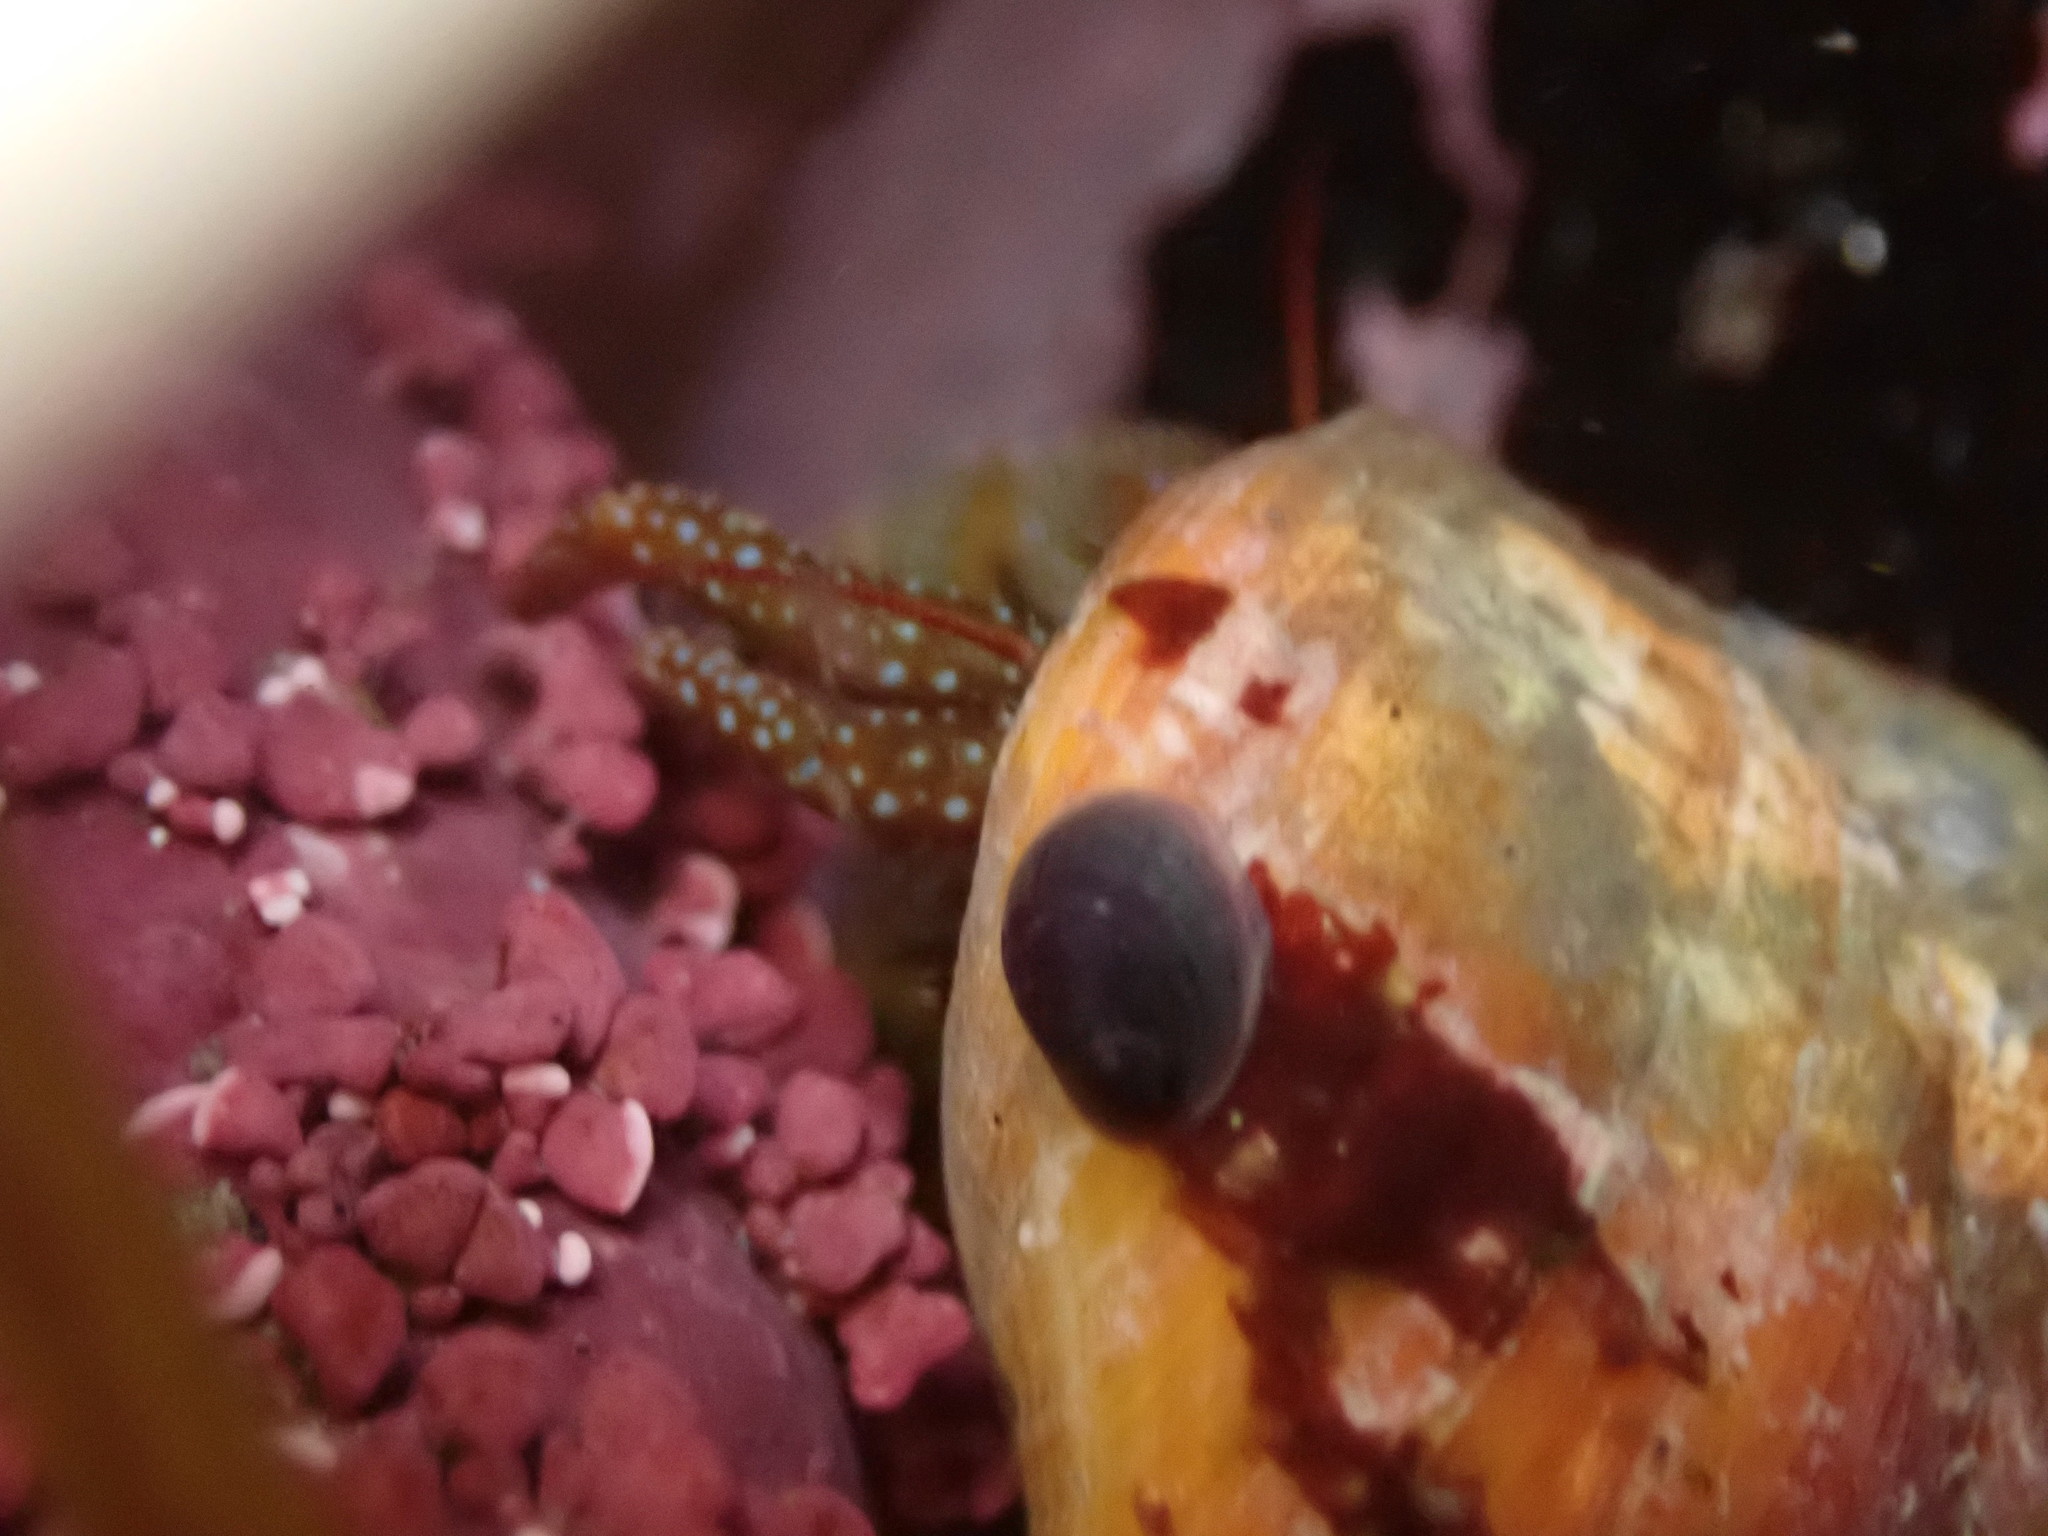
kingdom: Animalia
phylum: Arthropoda
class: Malacostraca
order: Decapoda
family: Paguridae
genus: Pagurus
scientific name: Pagurus granosimanus
